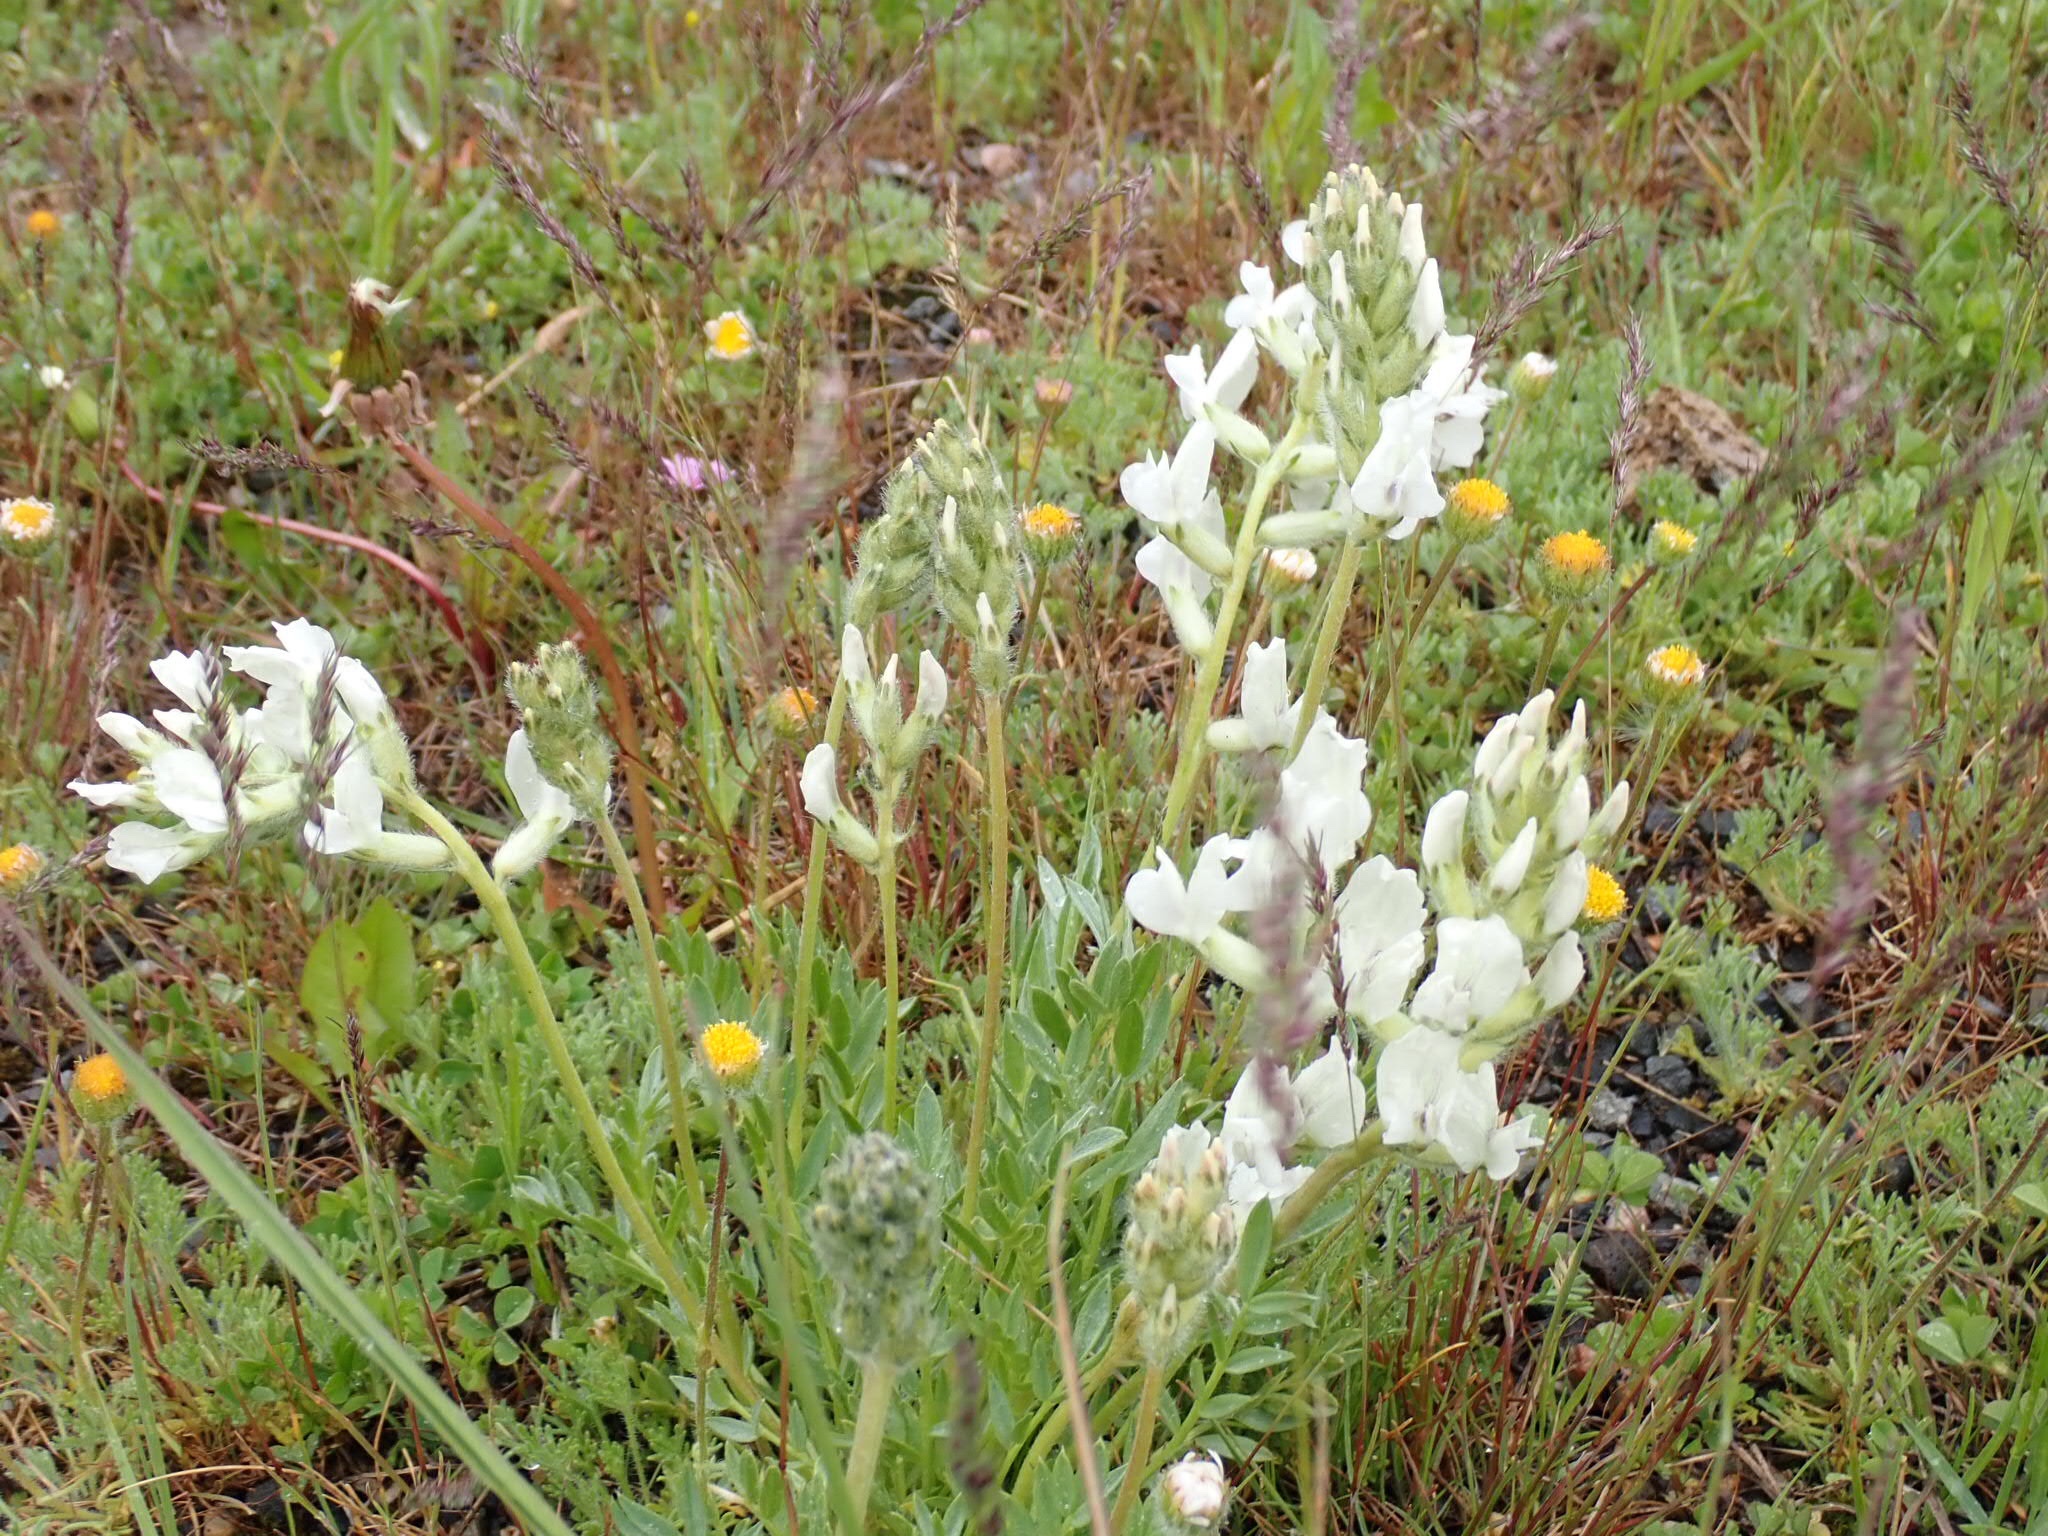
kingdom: Plantae
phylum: Tracheophyta
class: Magnoliopsida
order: Fabales
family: Fabaceae
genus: Oxytropis
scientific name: Oxytropis sericea
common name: Silky locoweed
